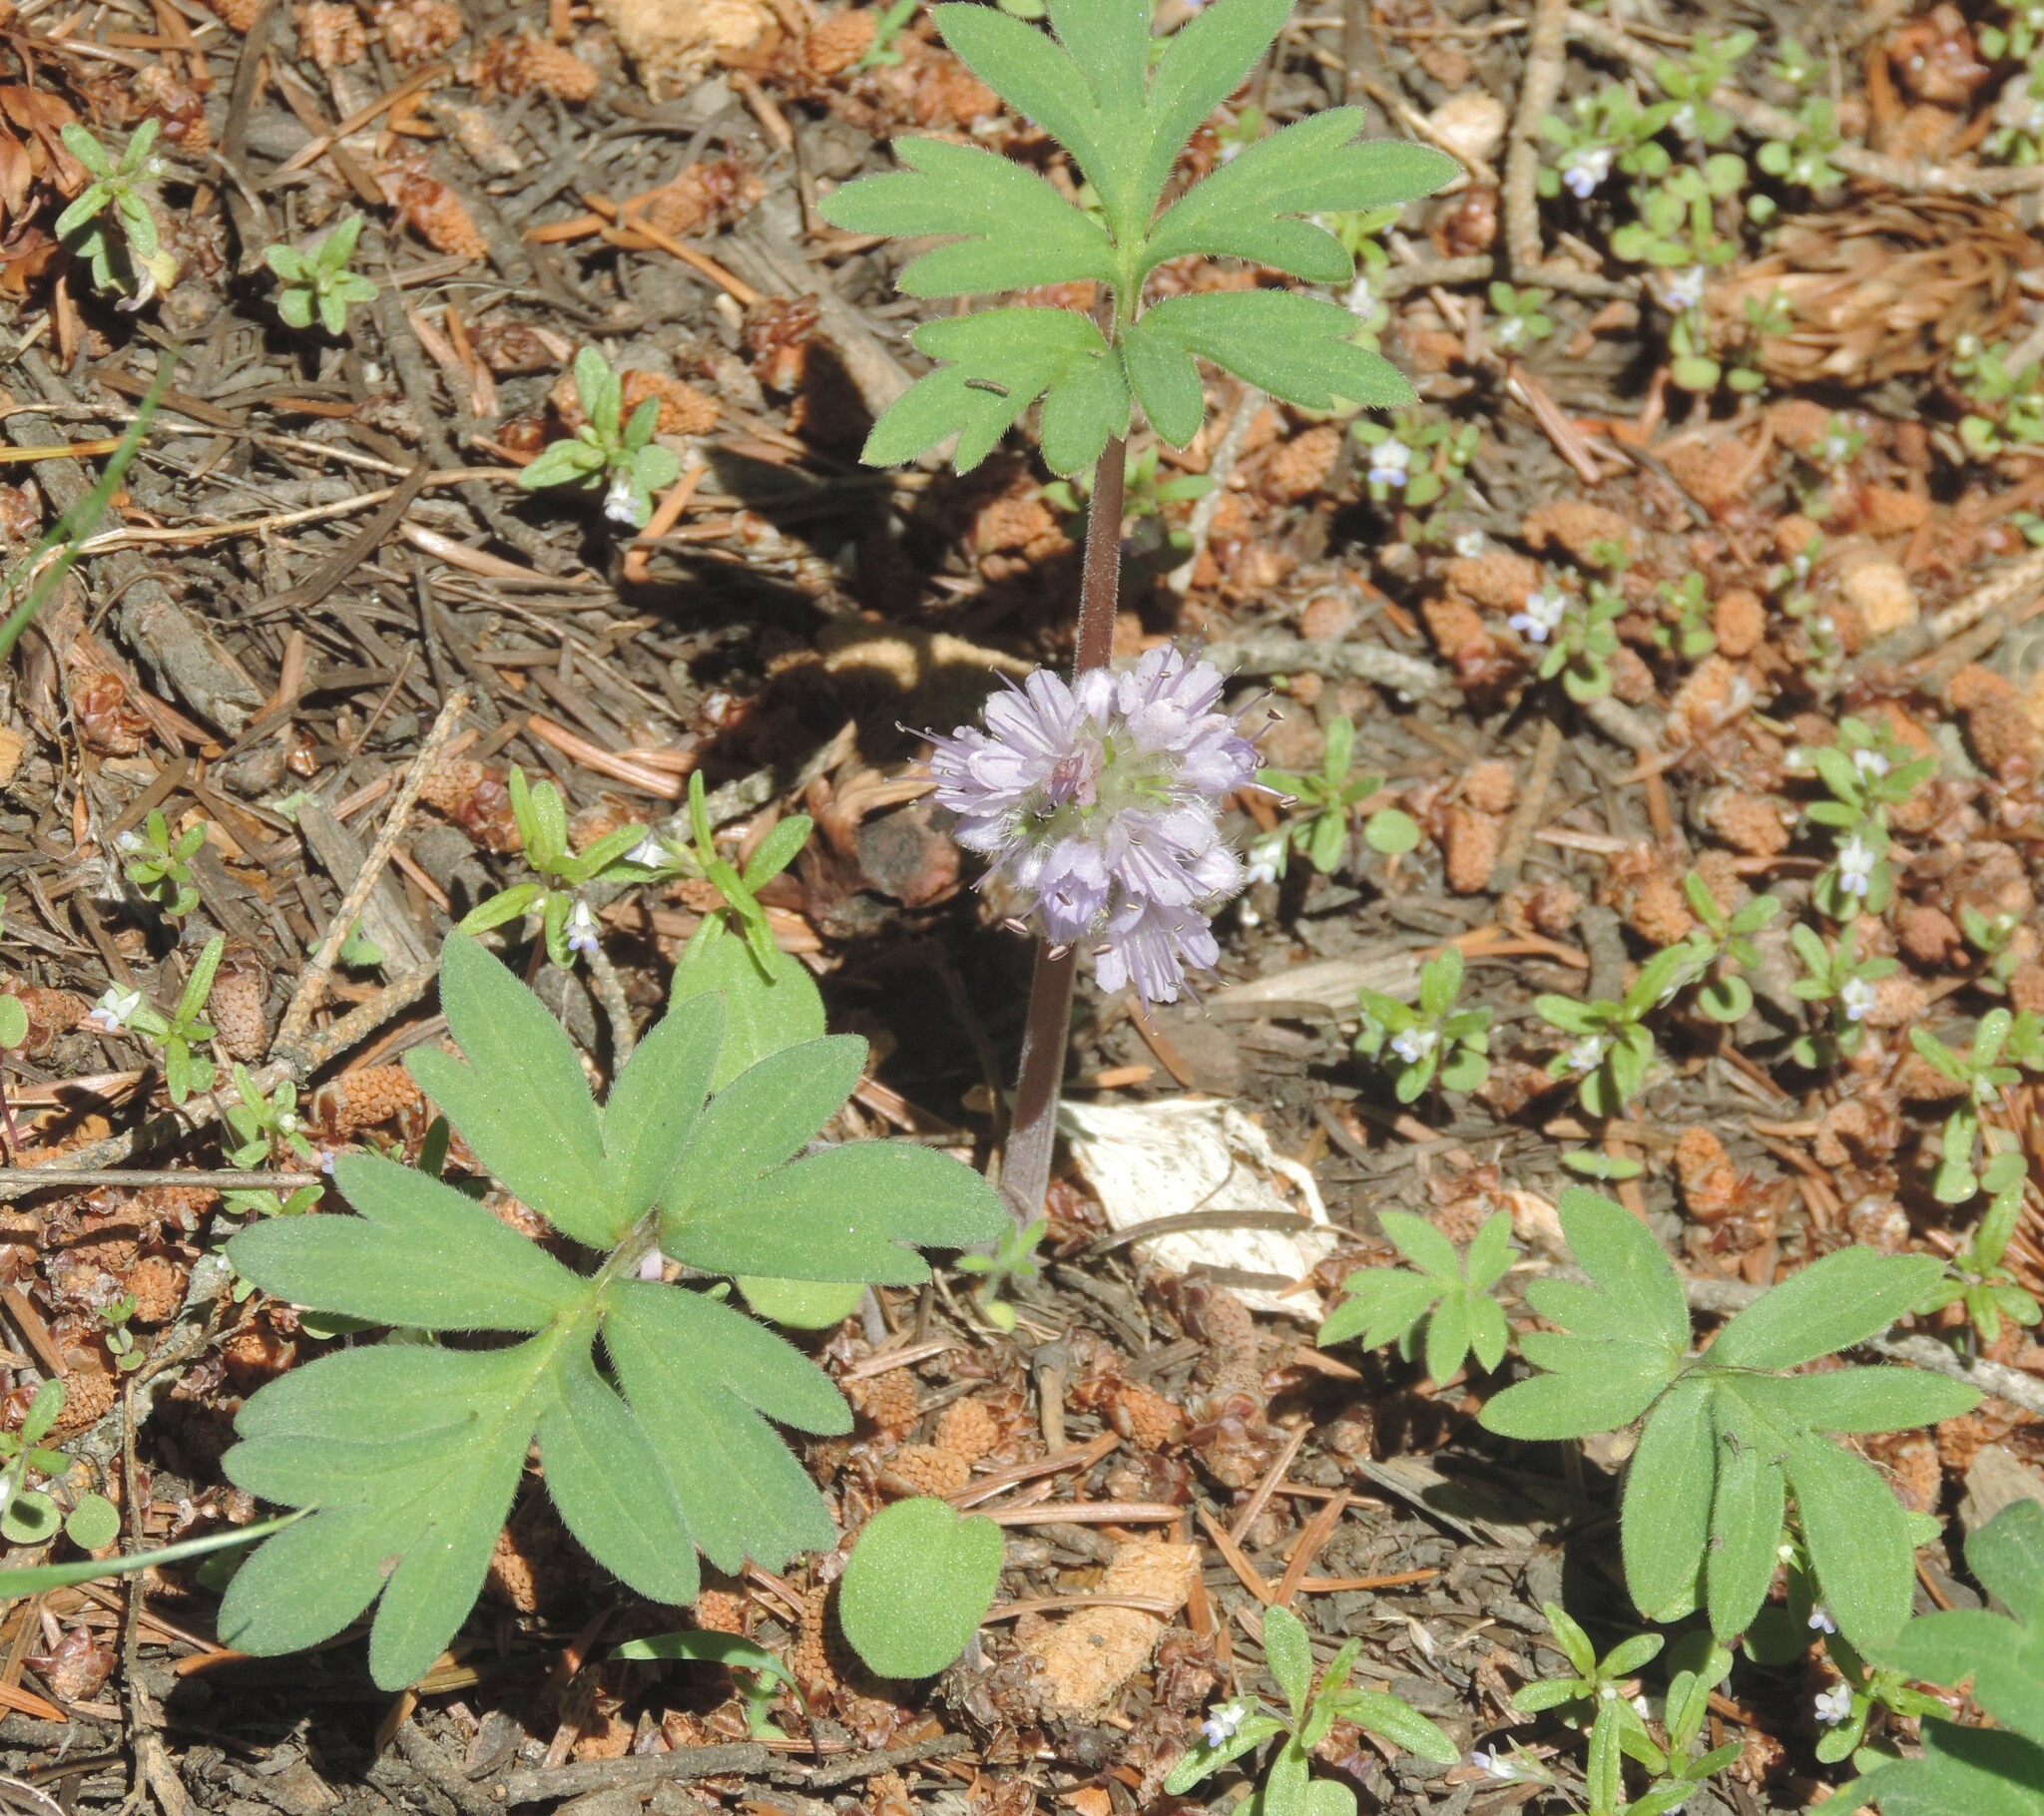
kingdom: Plantae
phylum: Tracheophyta
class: Magnoliopsida
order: Boraginales
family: Hydrophyllaceae
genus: Hydrophyllum
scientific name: Hydrophyllum capitatum
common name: Woollen-breeches
